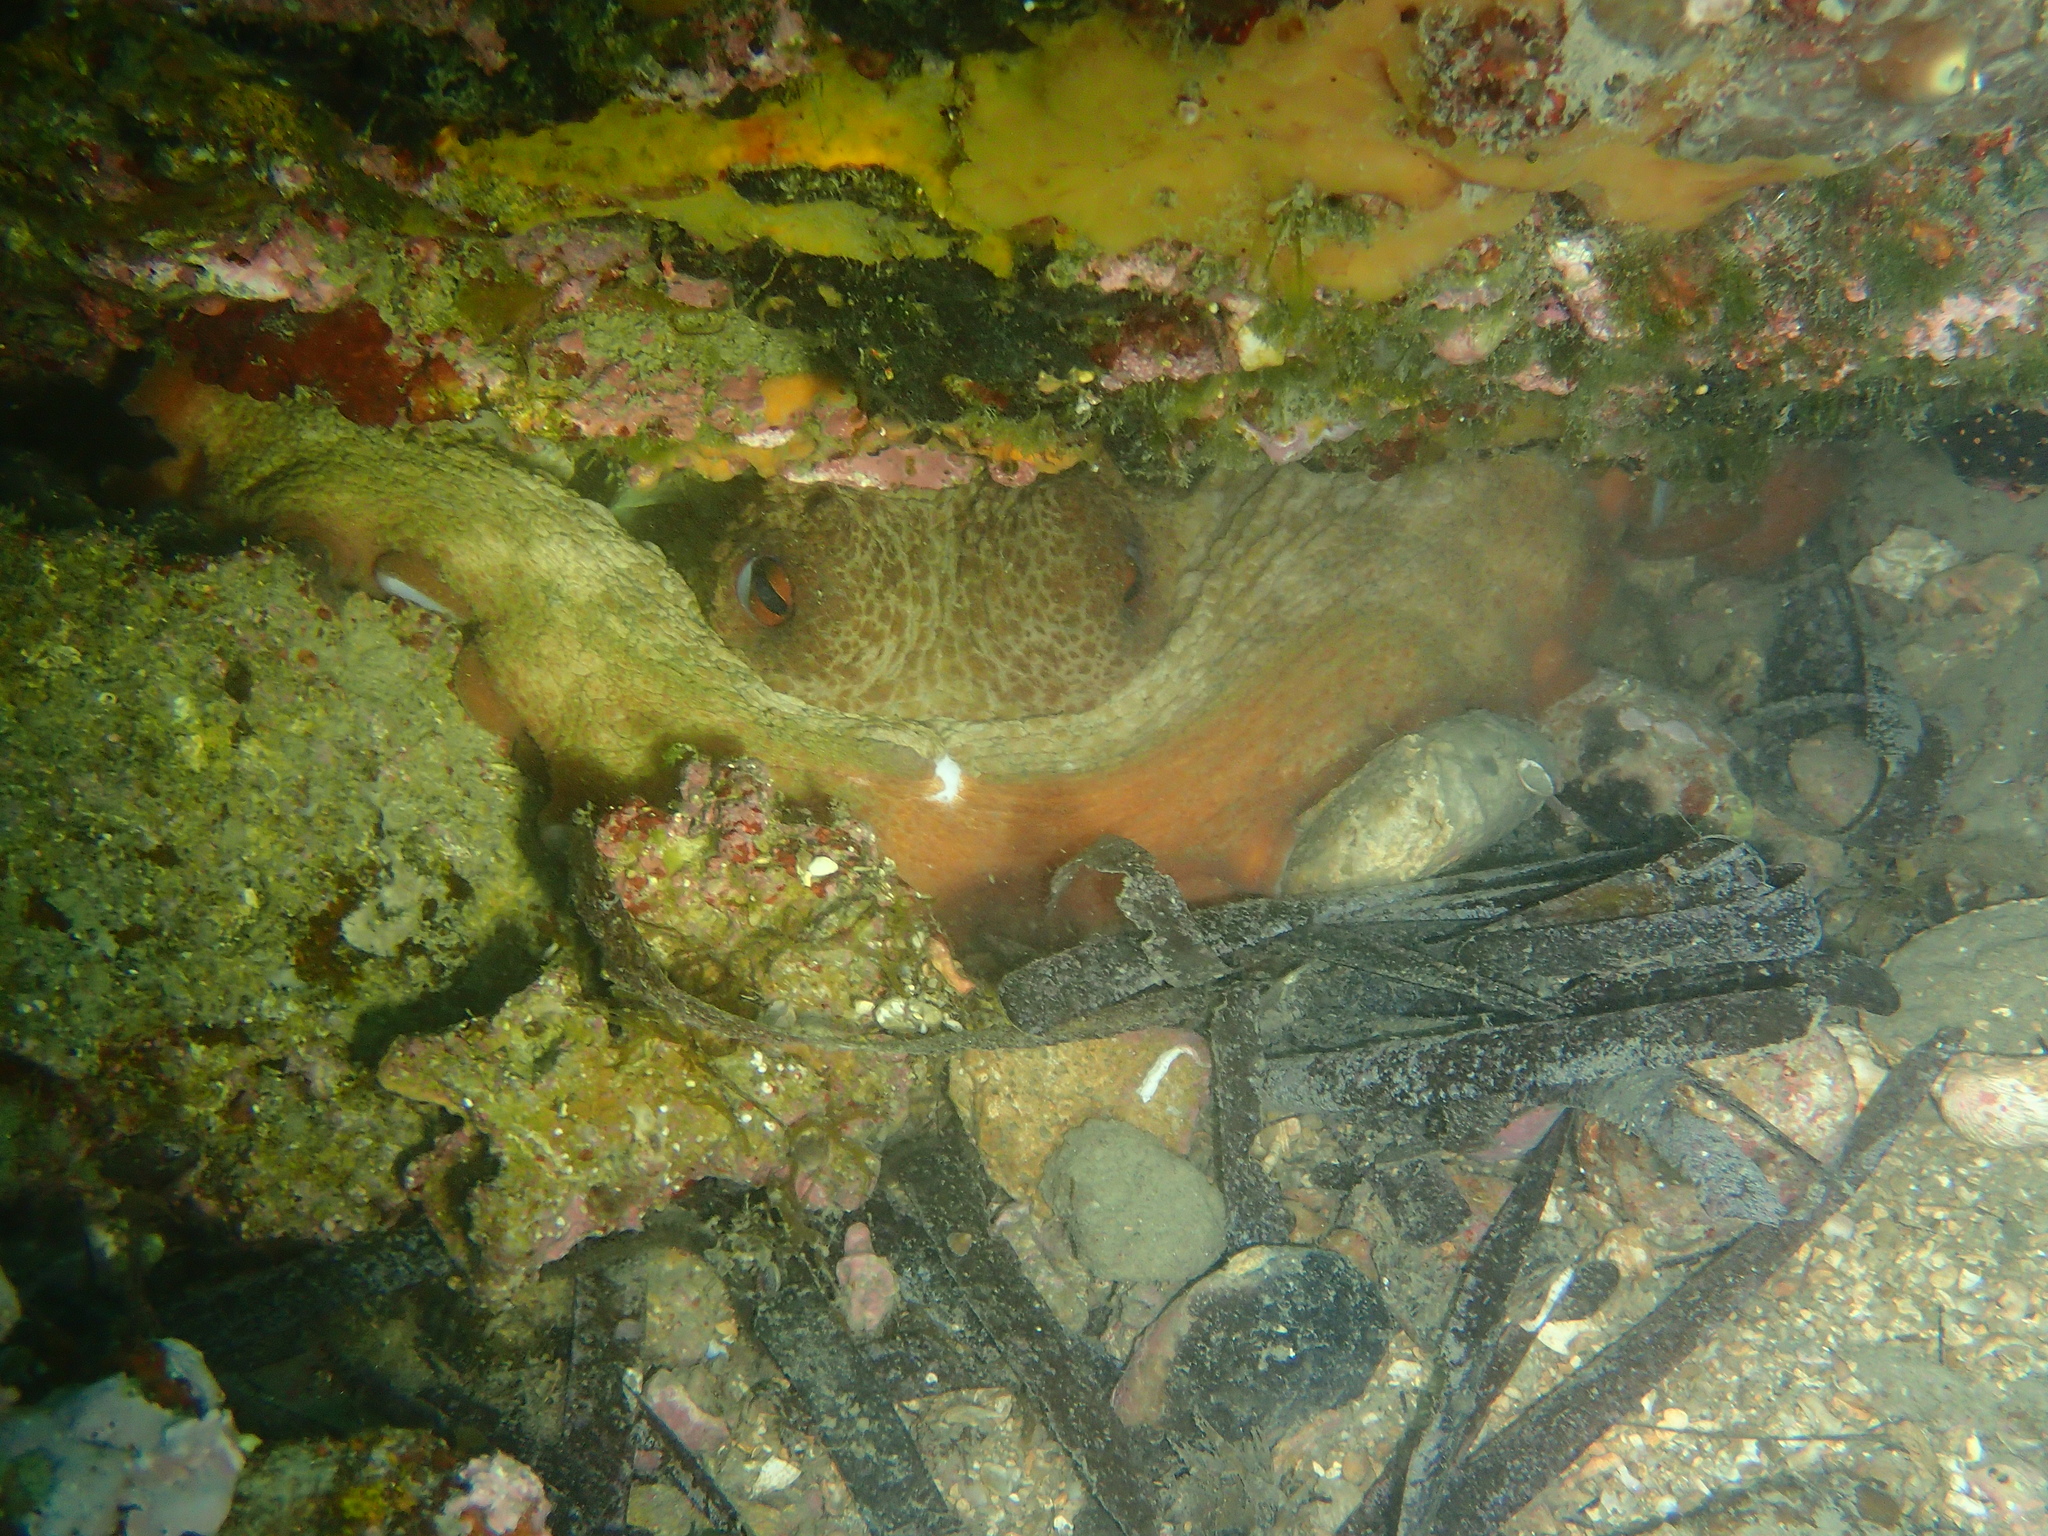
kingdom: Animalia
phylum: Mollusca
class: Cephalopoda
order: Octopoda
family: Octopodidae
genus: Octopus
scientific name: Octopus vulgaris
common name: Common octopus
